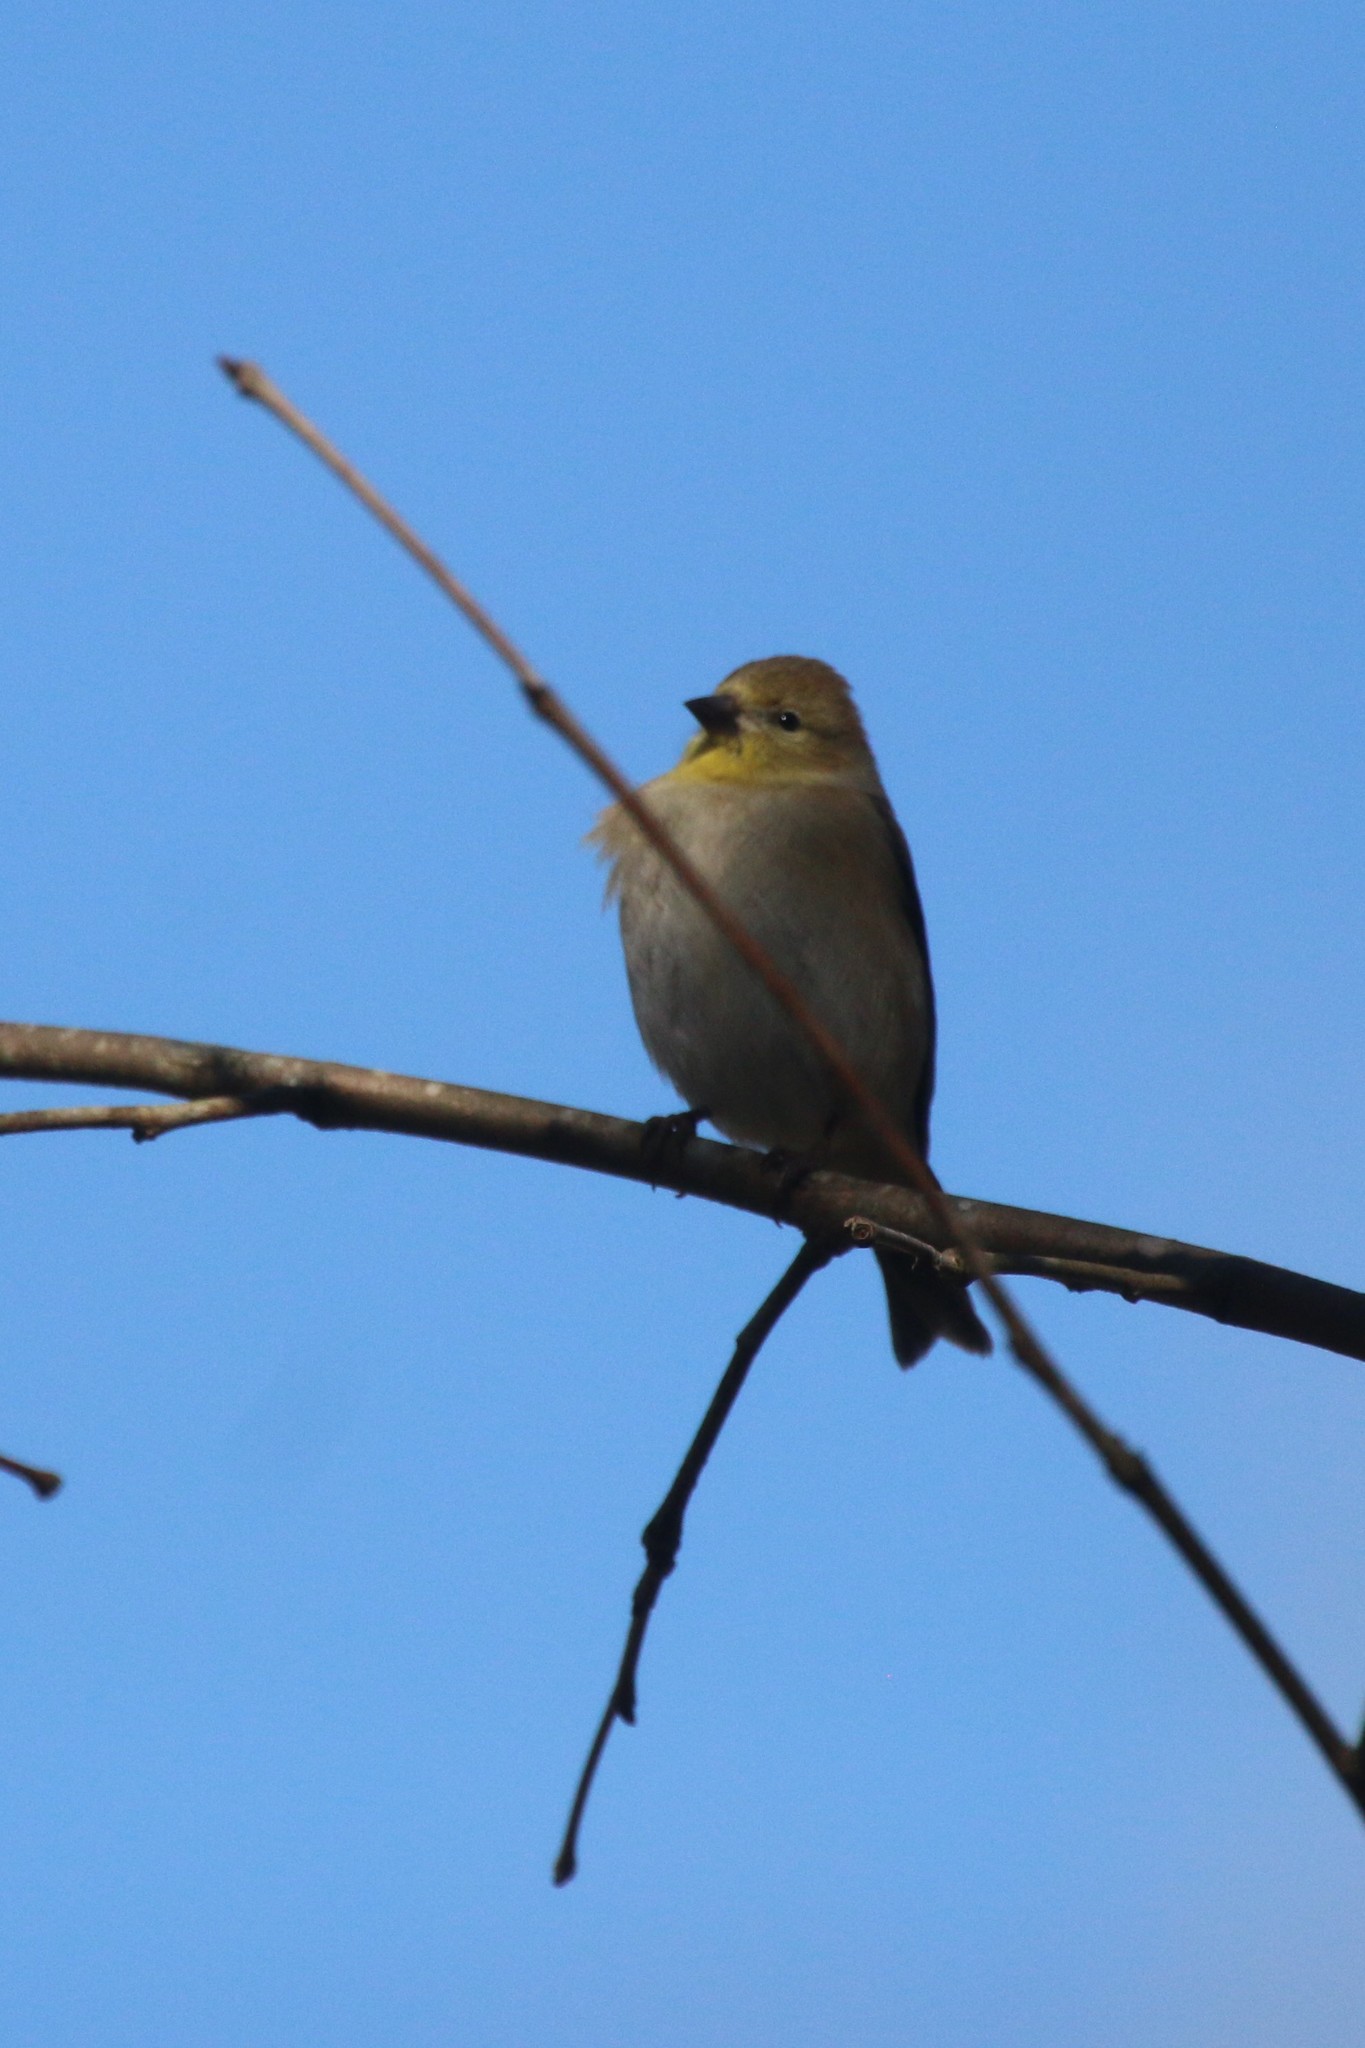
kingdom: Animalia
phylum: Chordata
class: Aves
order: Passeriformes
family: Fringillidae
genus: Spinus
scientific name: Spinus tristis
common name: American goldfinch
